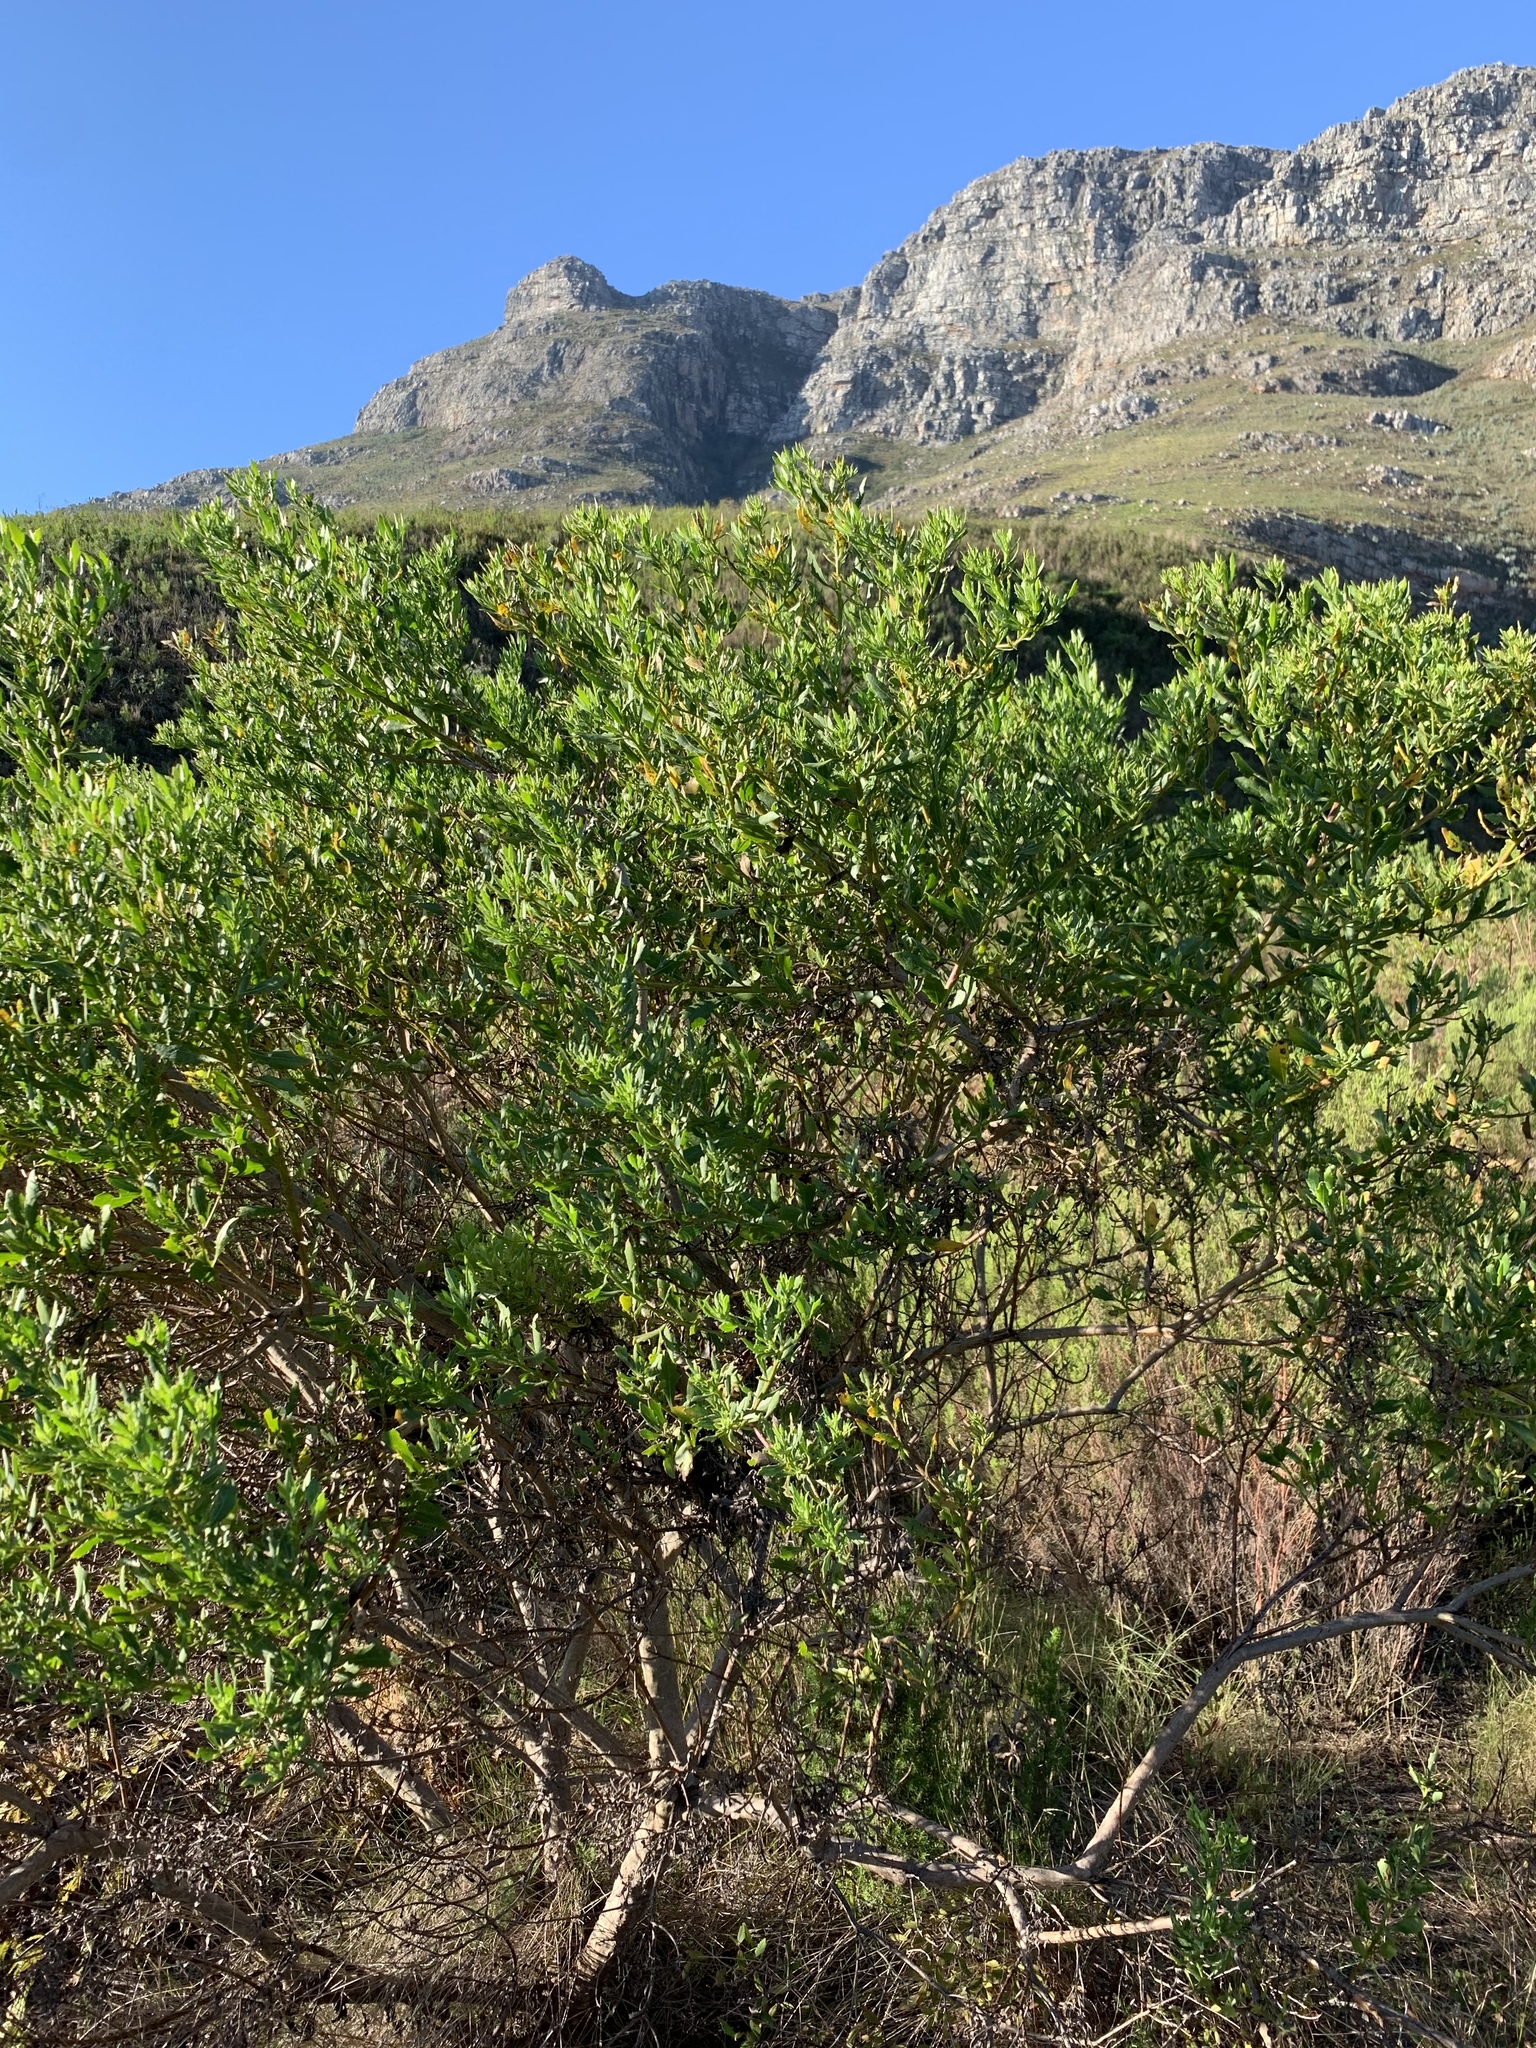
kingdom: Plantae
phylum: Tracheophyta
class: Magnoliopsida
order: Asterales
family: Asteraceae
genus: Osteospermum
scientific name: Osteospermum moniliferum
